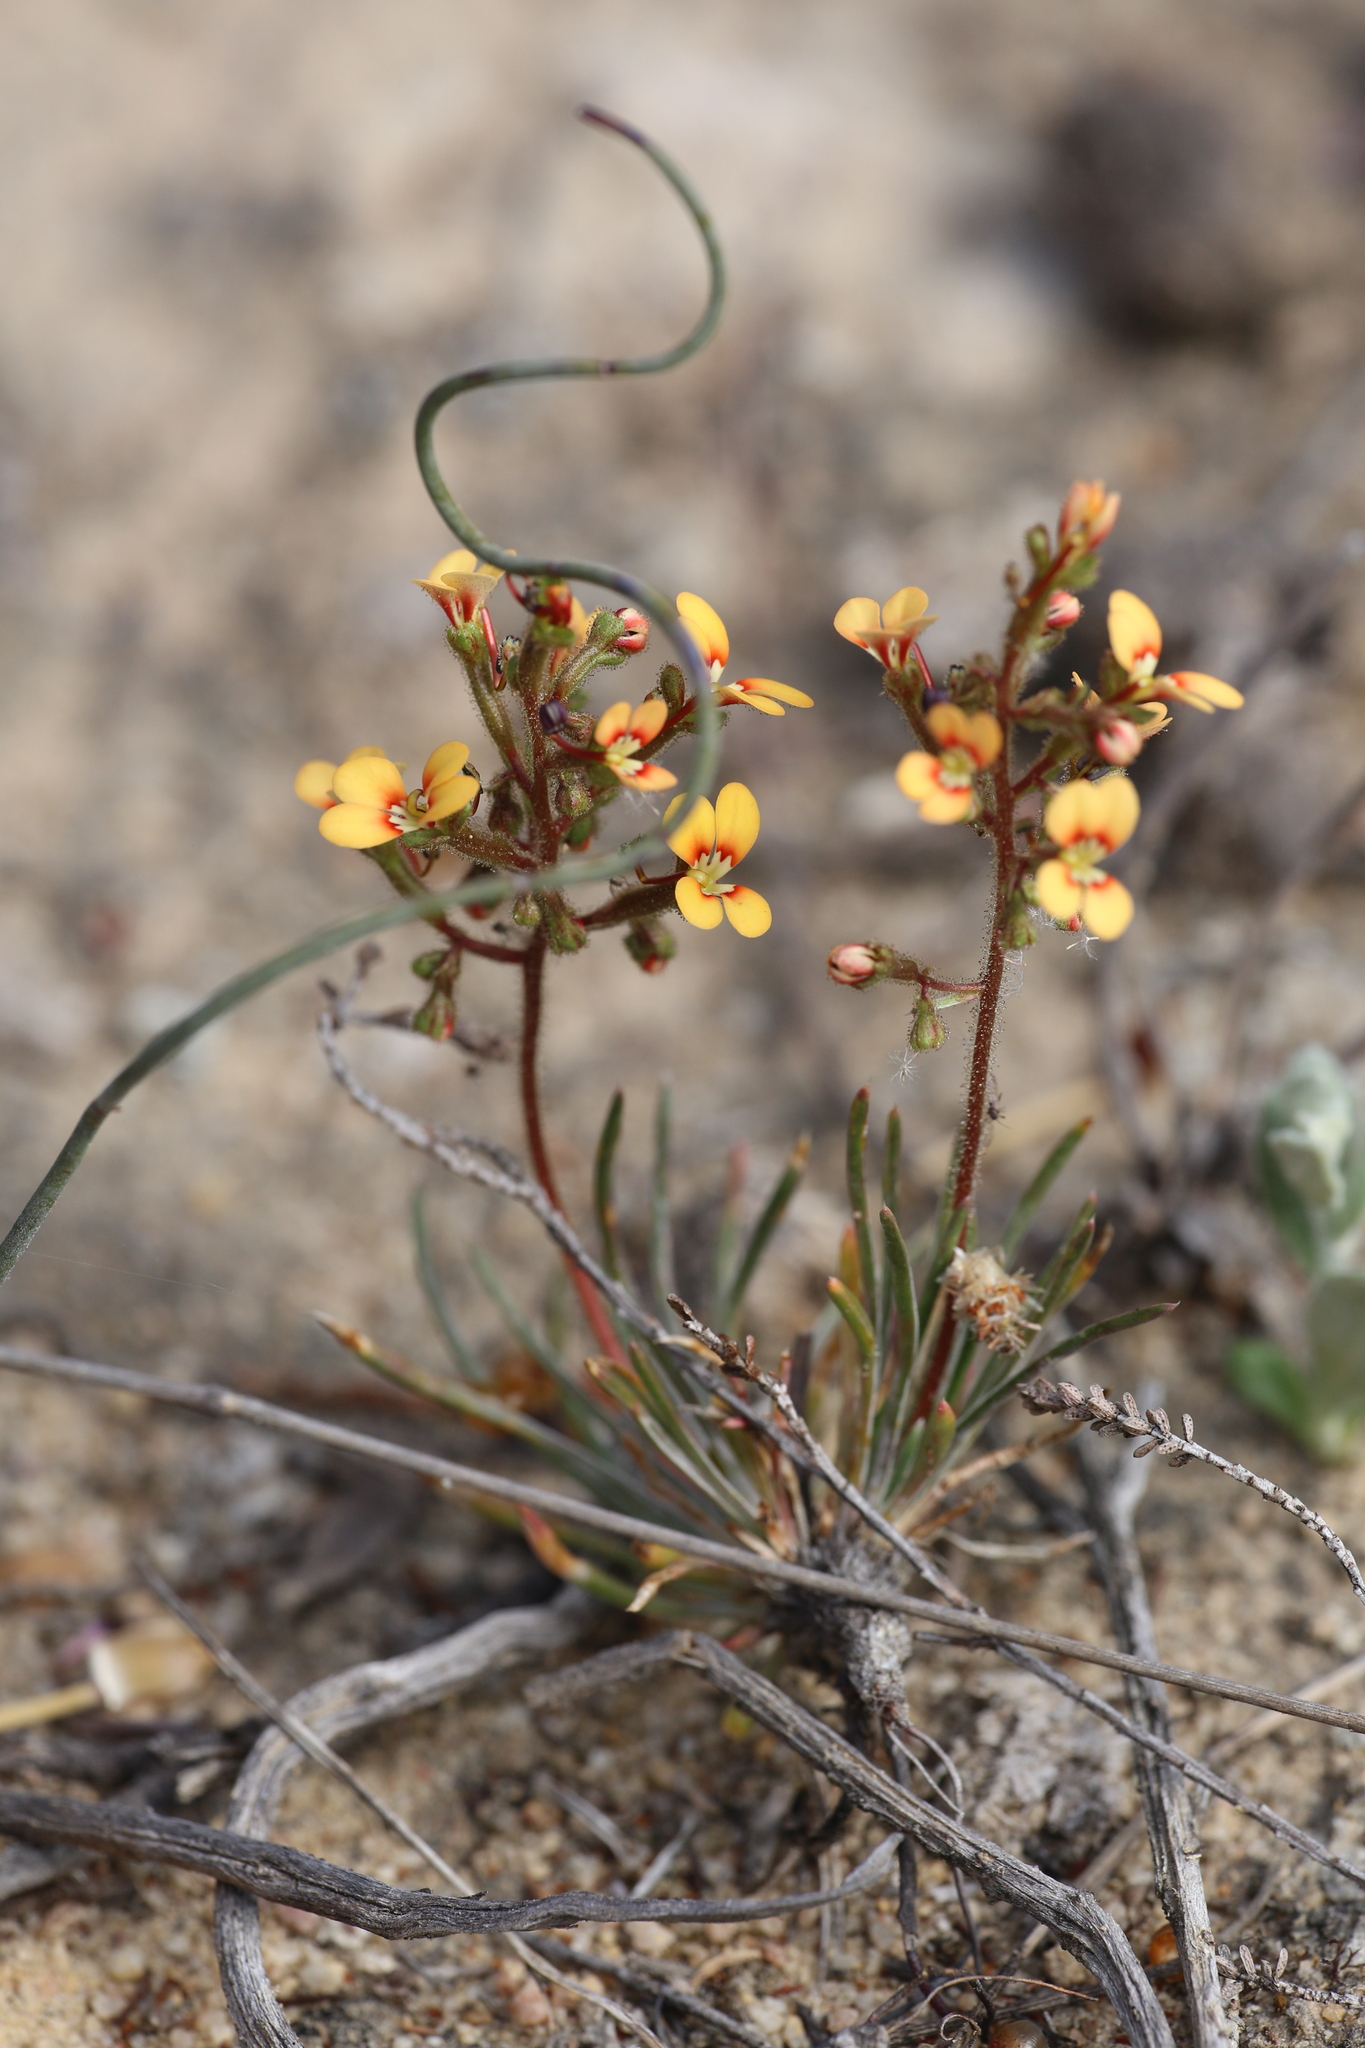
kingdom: Plantae
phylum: Tracheophyta
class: Magnoliopsida
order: Asterales
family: Stylidiaceae
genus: Stylidium
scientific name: Stylidium dichotomum
